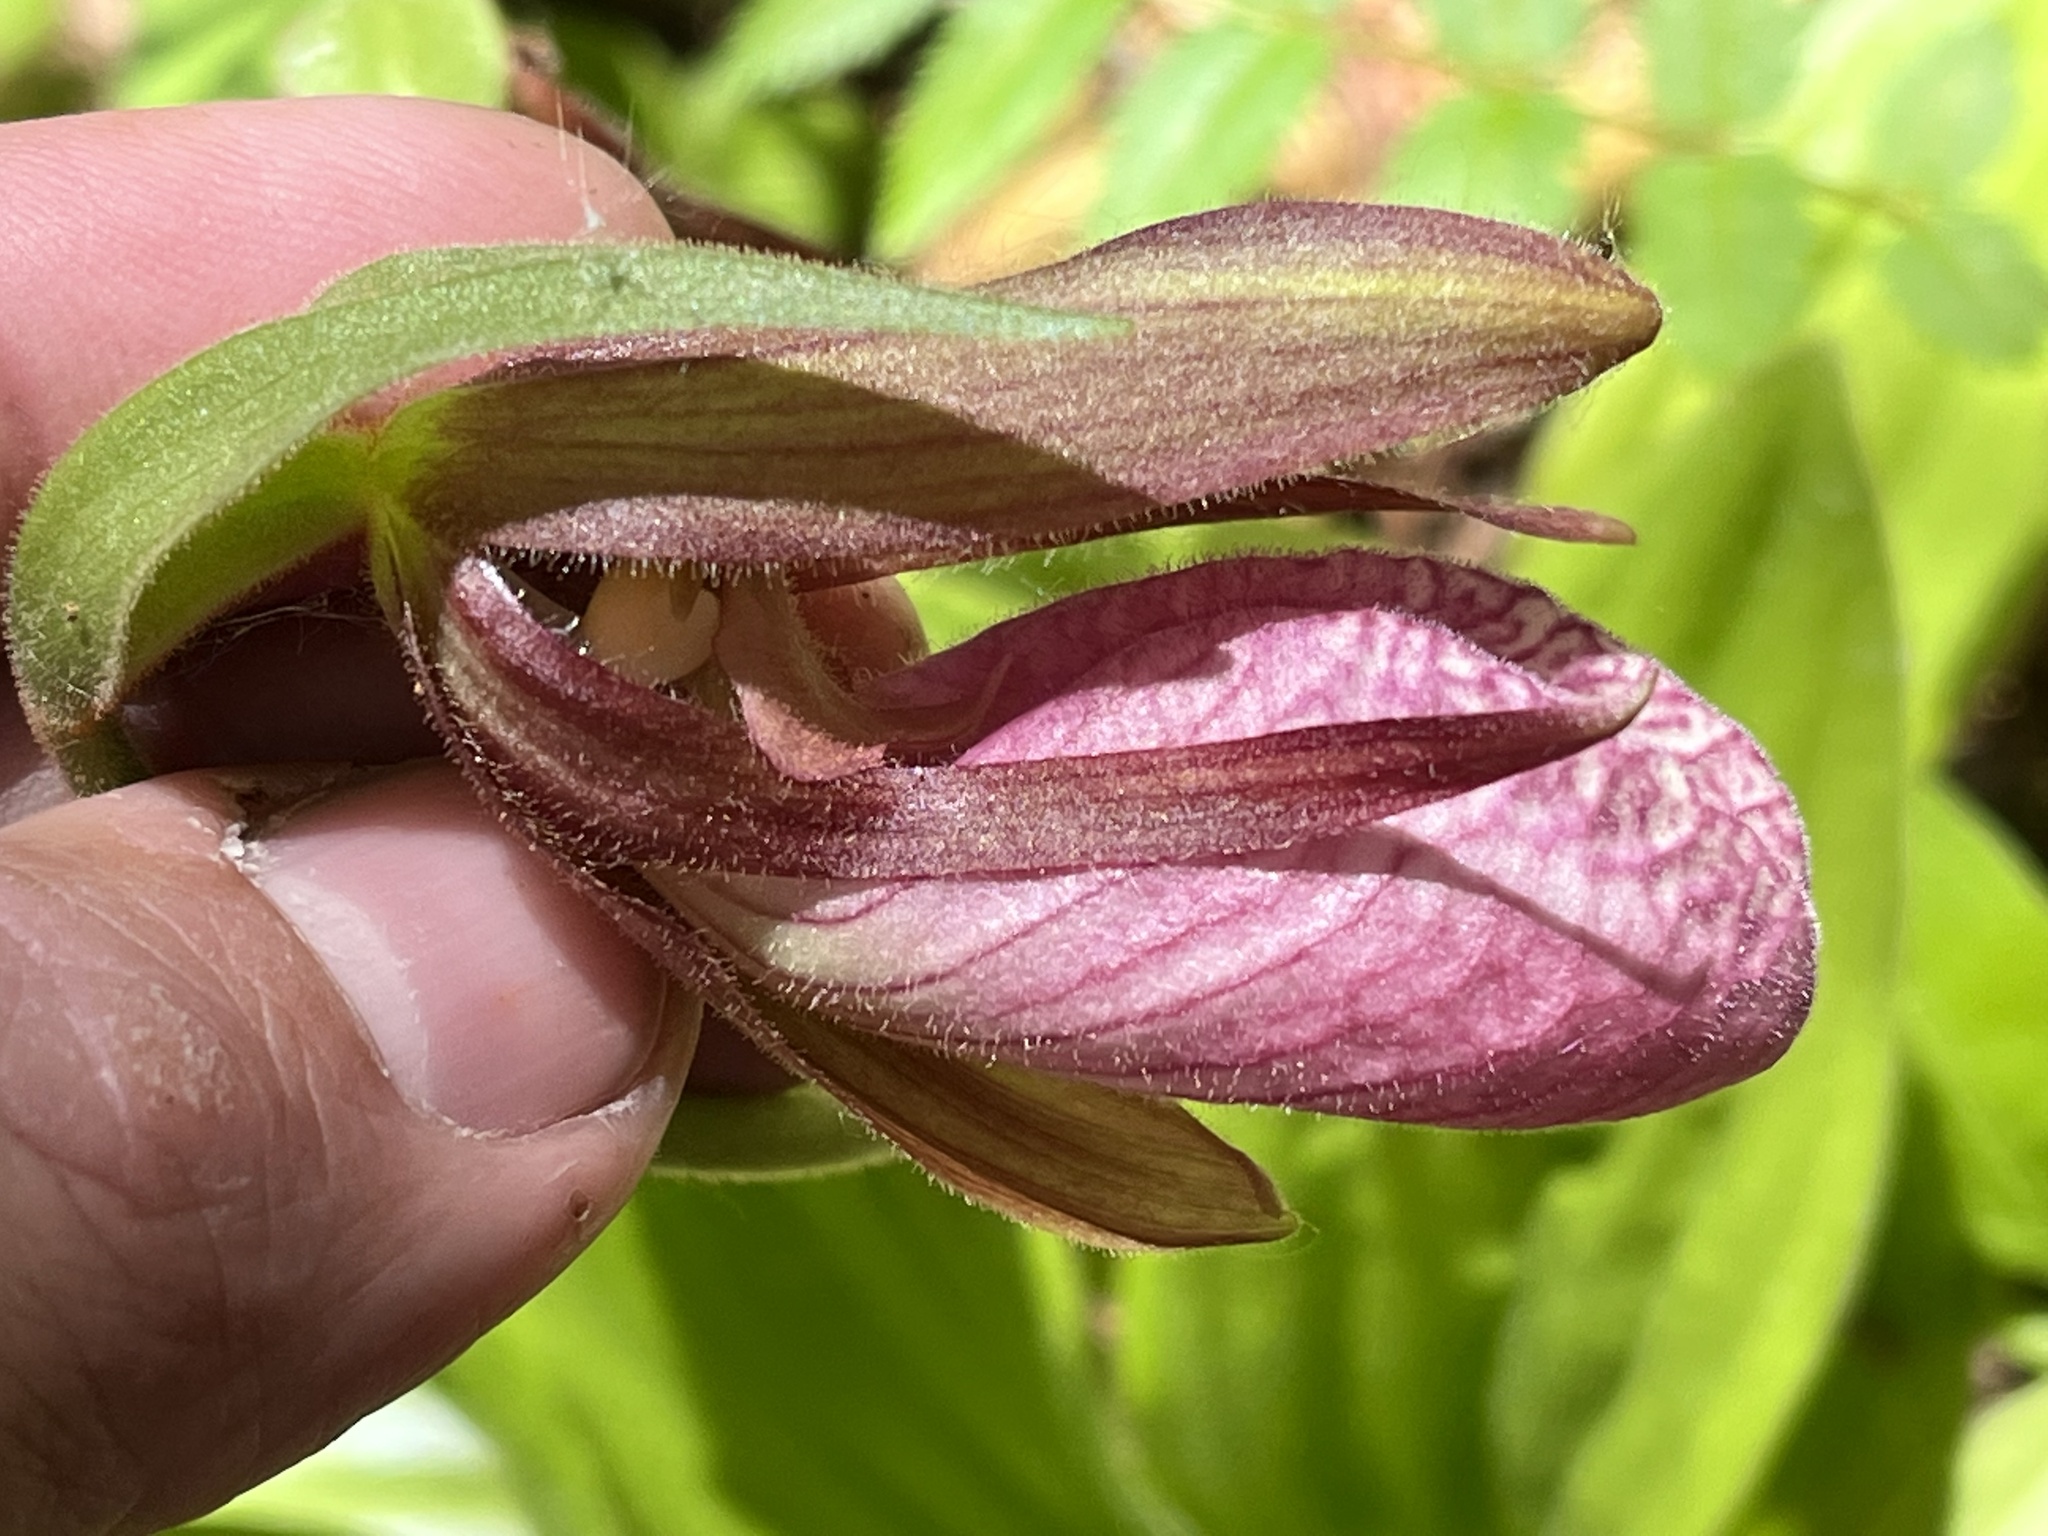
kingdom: Plantae
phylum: Tracheophyta
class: Liliopsida
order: Asparagales
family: Orchidaceae
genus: Cypripedium
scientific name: Cypripedium acaule
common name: Pink lady's-slipper
